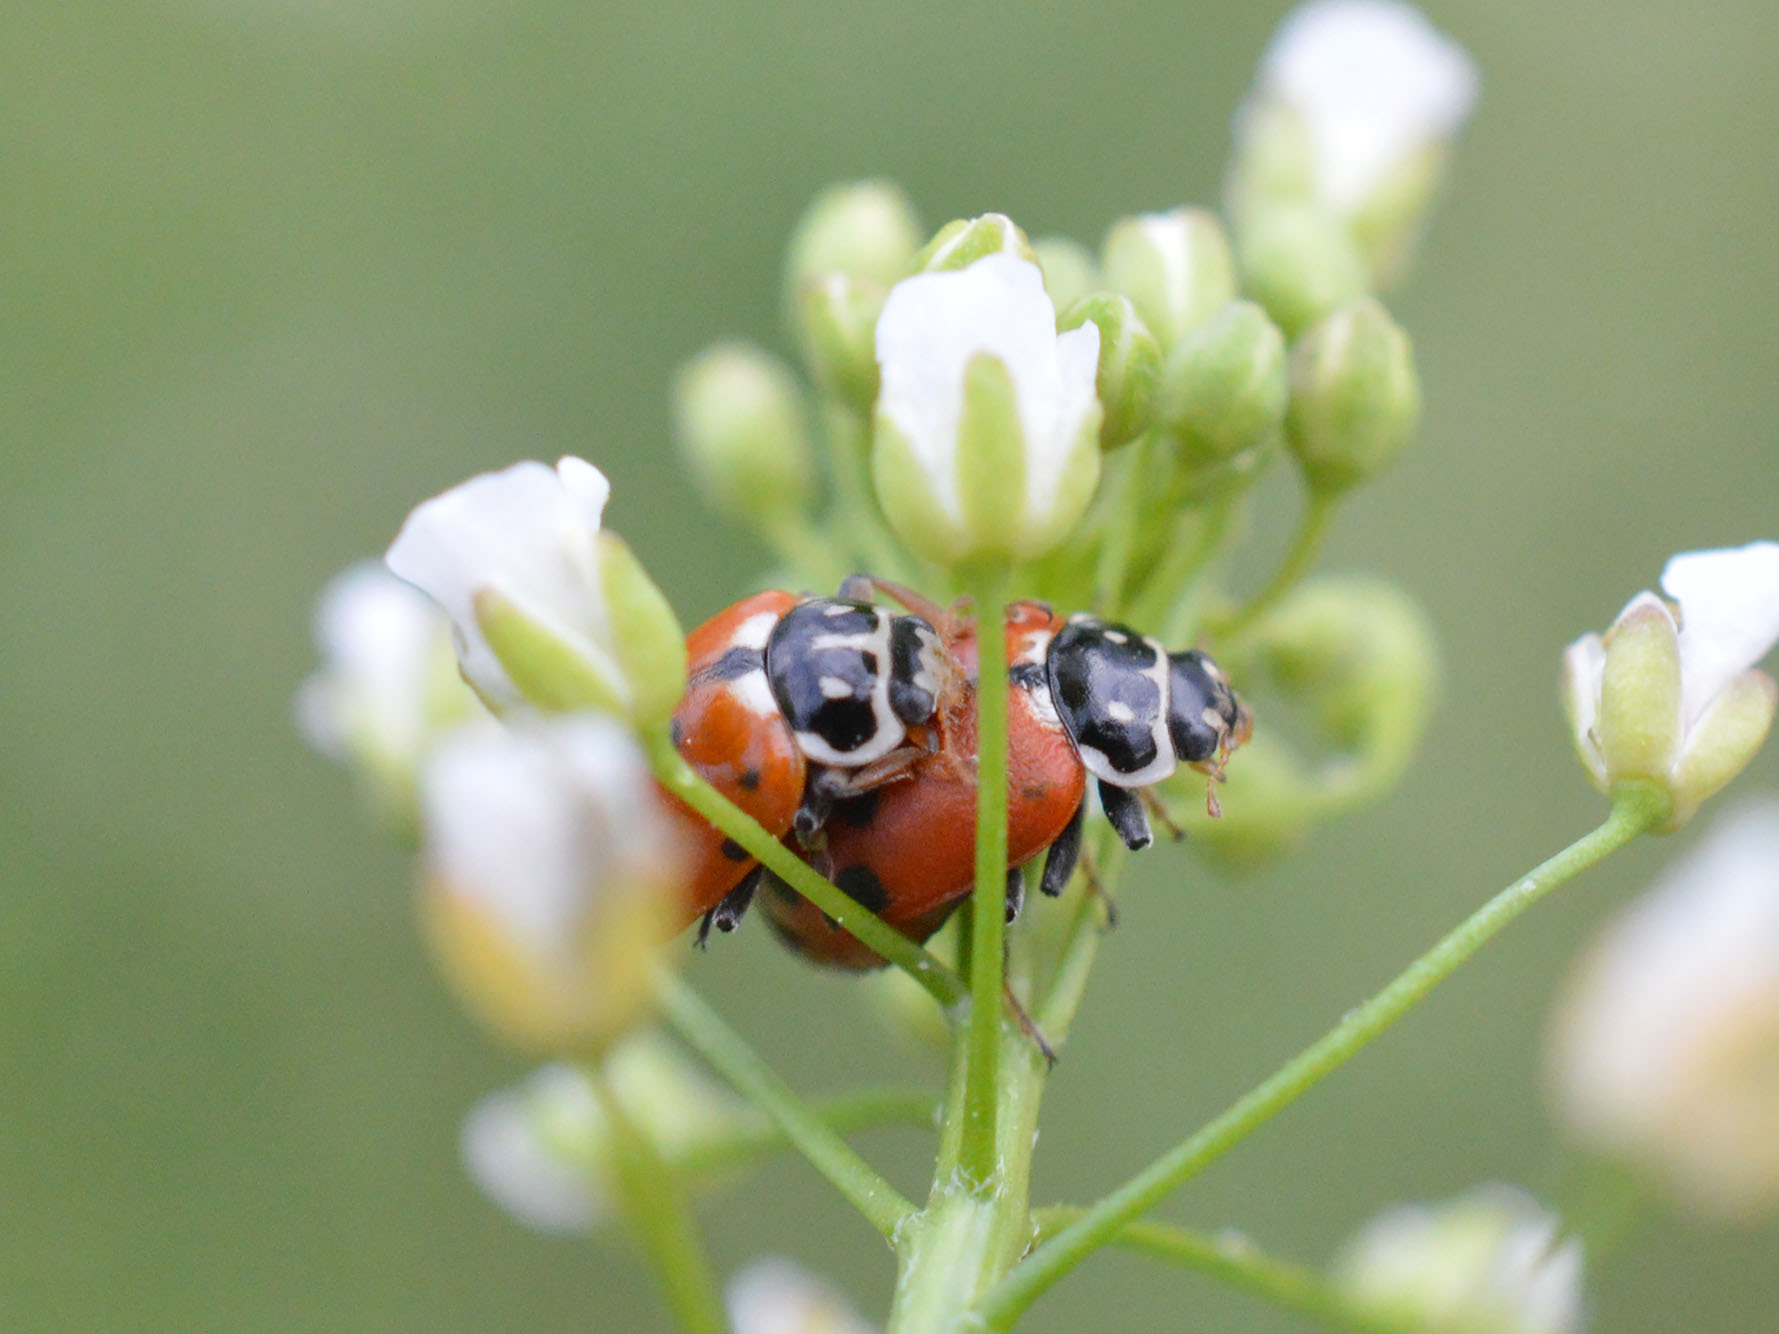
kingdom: Animalia
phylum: Arthropoda
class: Insecta
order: Coleoptera
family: Coccinellidae
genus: Hippodamia
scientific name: Hippodamia variegata
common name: Ladybird beetle
